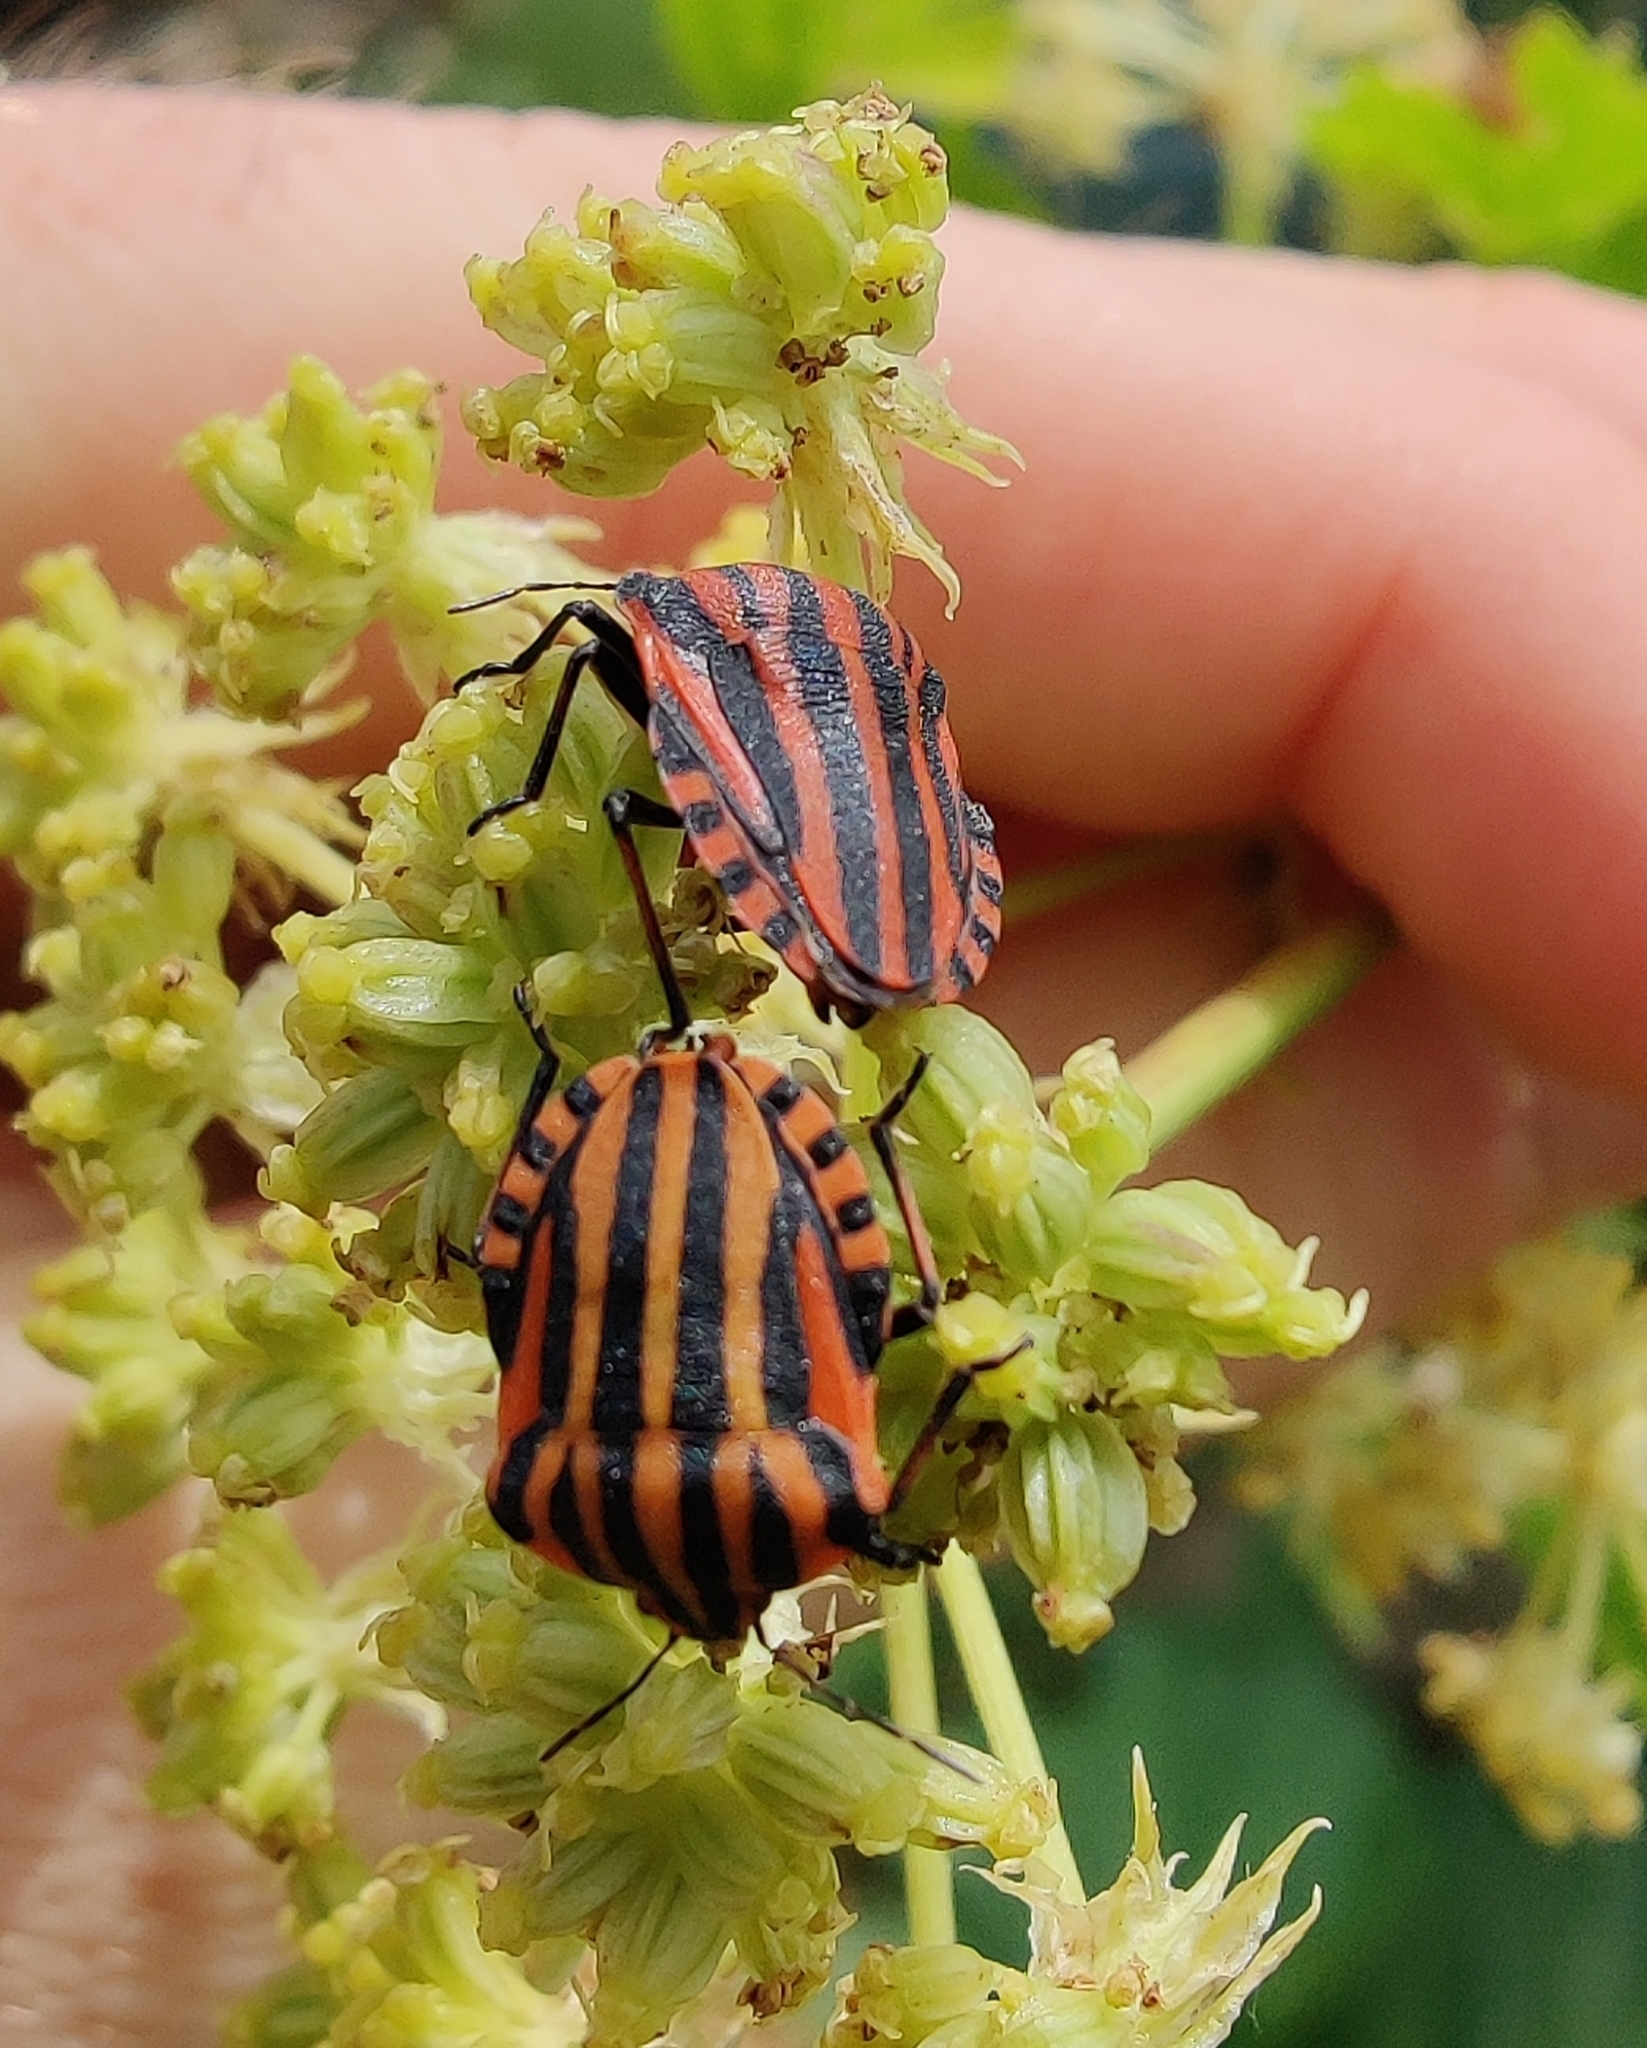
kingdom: Animalia
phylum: Arthropoda
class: Insecta
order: Hemiptera
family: Pentatomidae
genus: Graphosoma
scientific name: Graphosoma italicum
